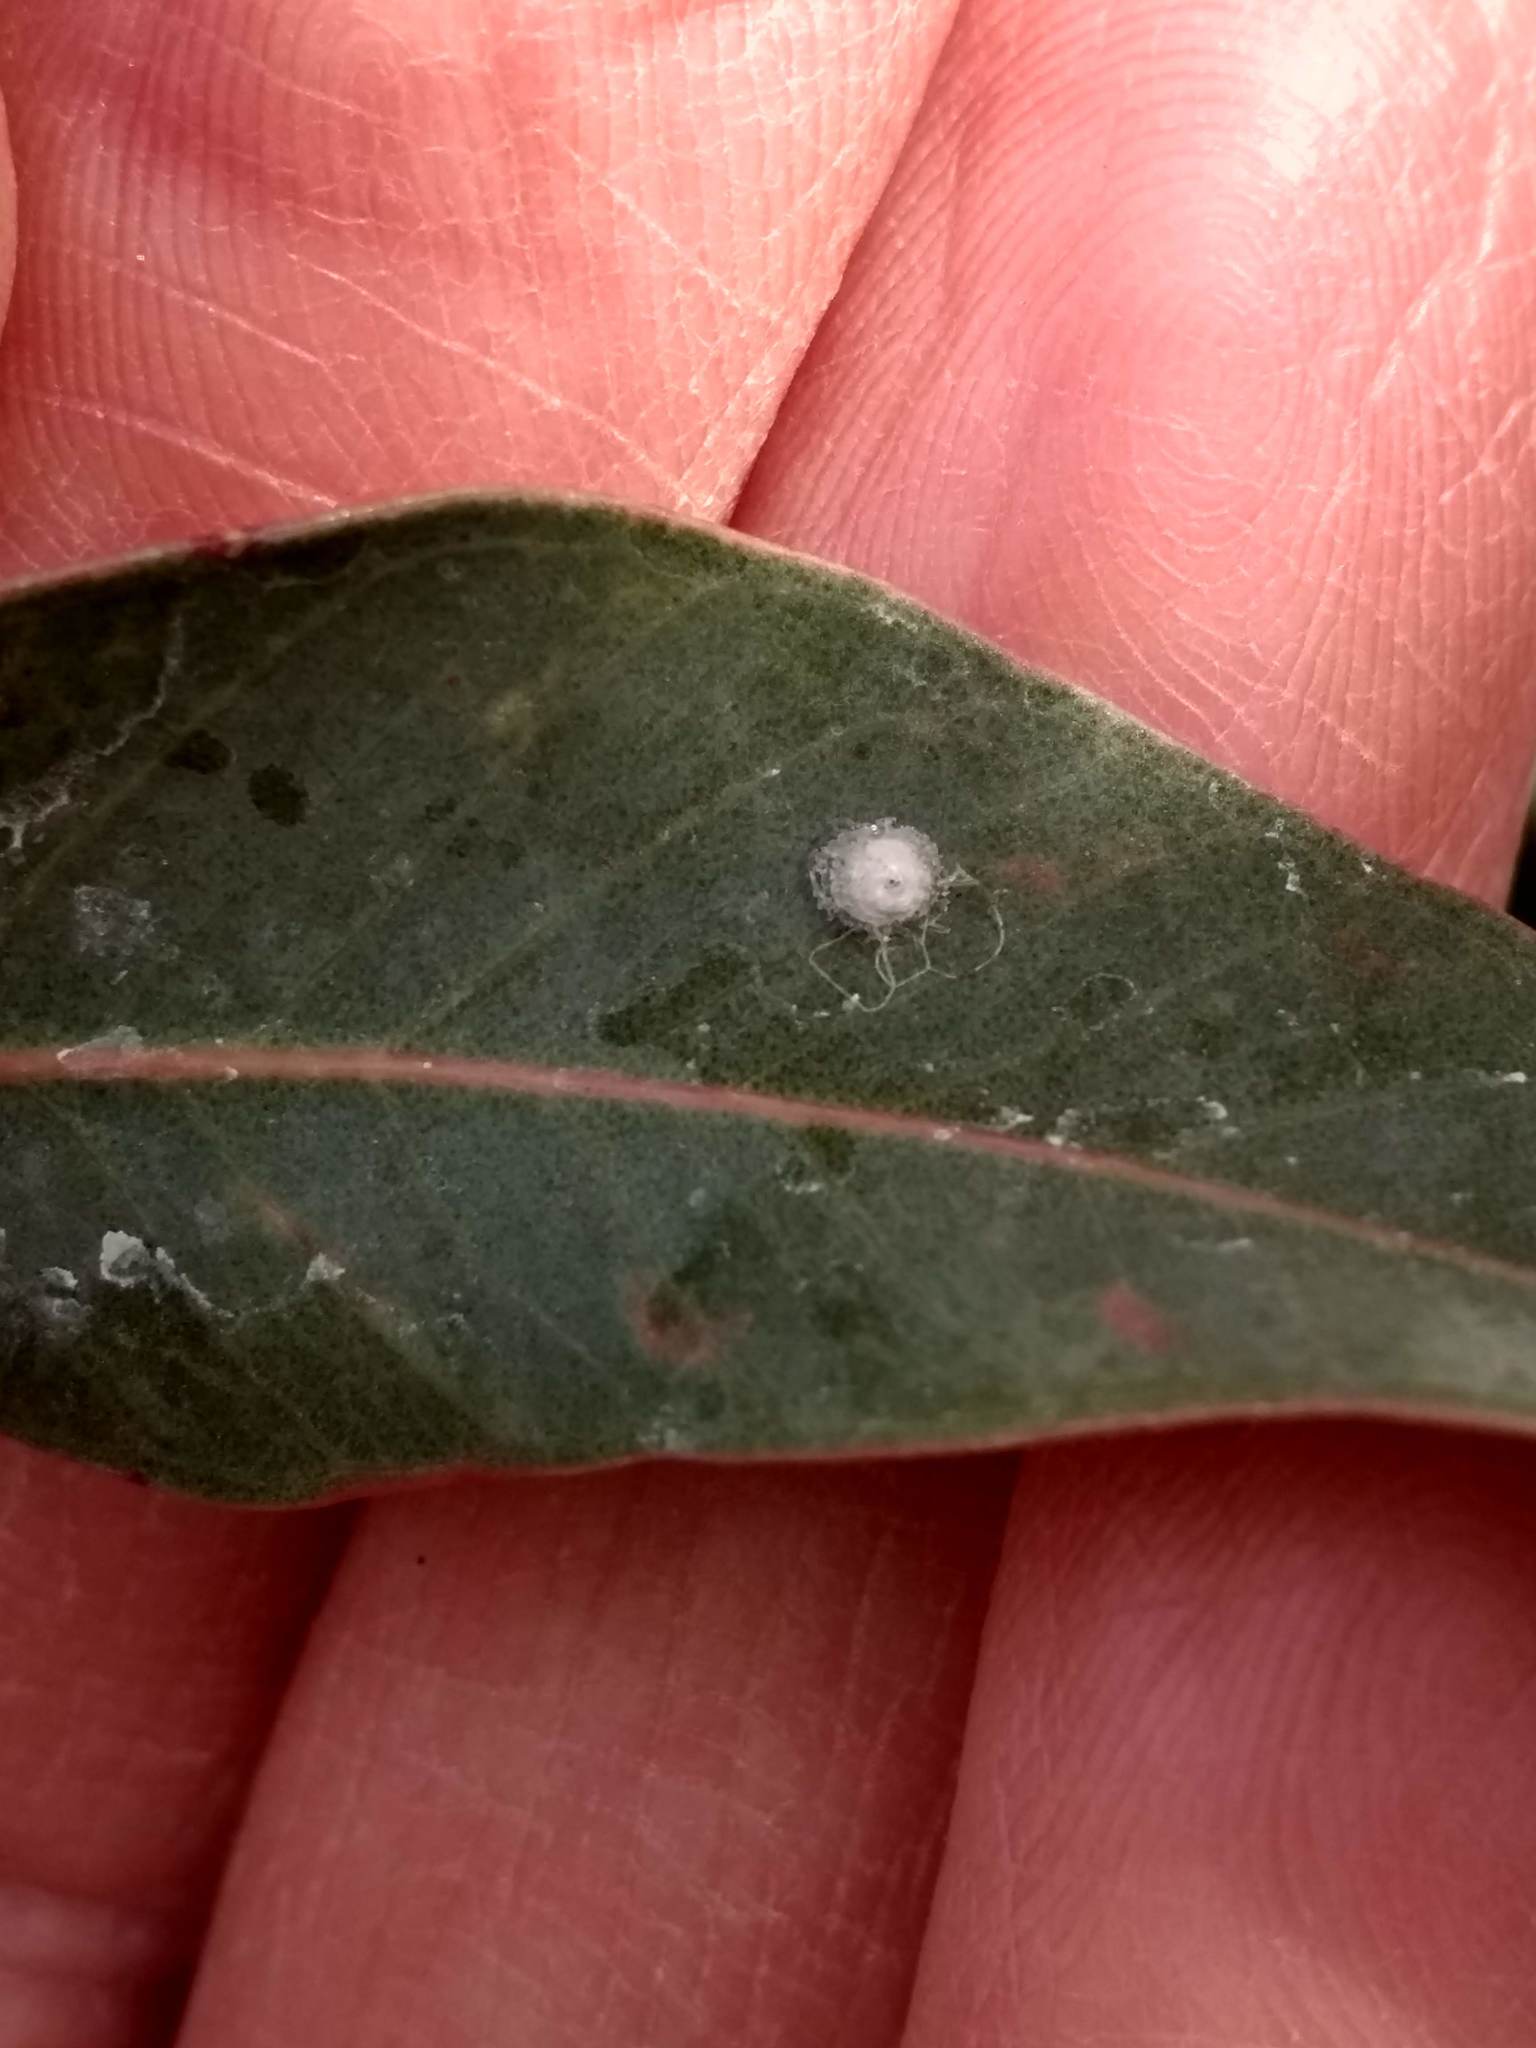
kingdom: Animalia
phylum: Arthropoda
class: Insecta
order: Hemiptera
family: Aphalaridae
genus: Glycaspis
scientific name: Glycaspis brimblecombei
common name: Red gum lerp psyllid
